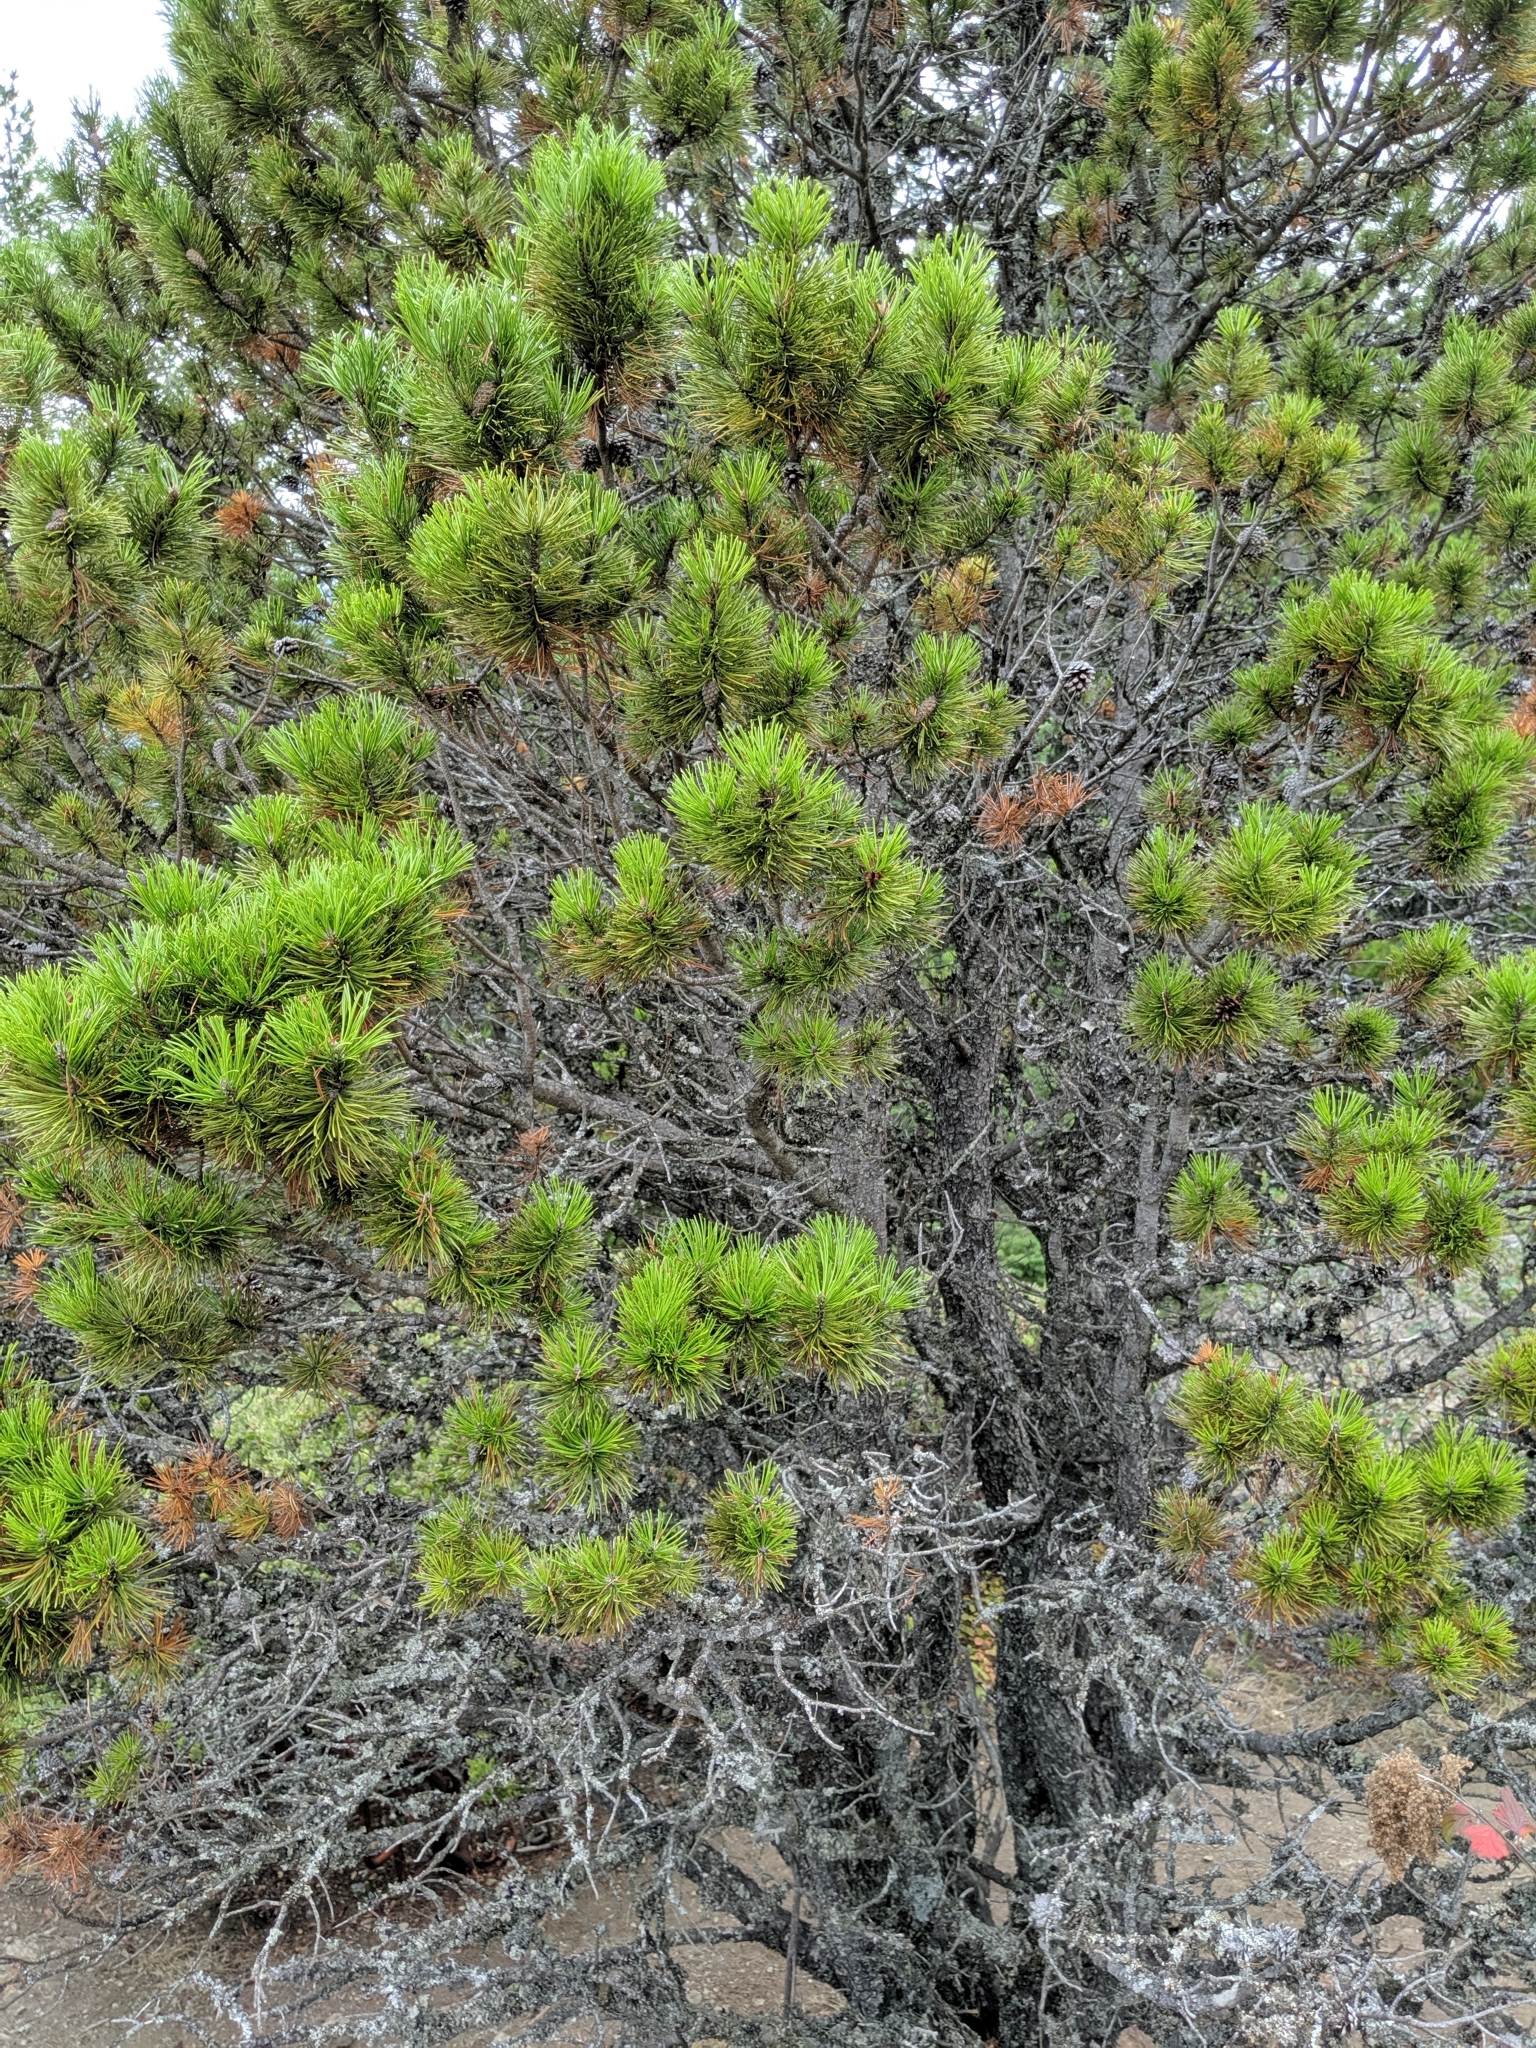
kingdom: Plantae
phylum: Tracheophyta
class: Pinopsida
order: Pinales
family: Pinaceae
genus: Pinus
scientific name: Pinus contorta
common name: Lodgepole pine
